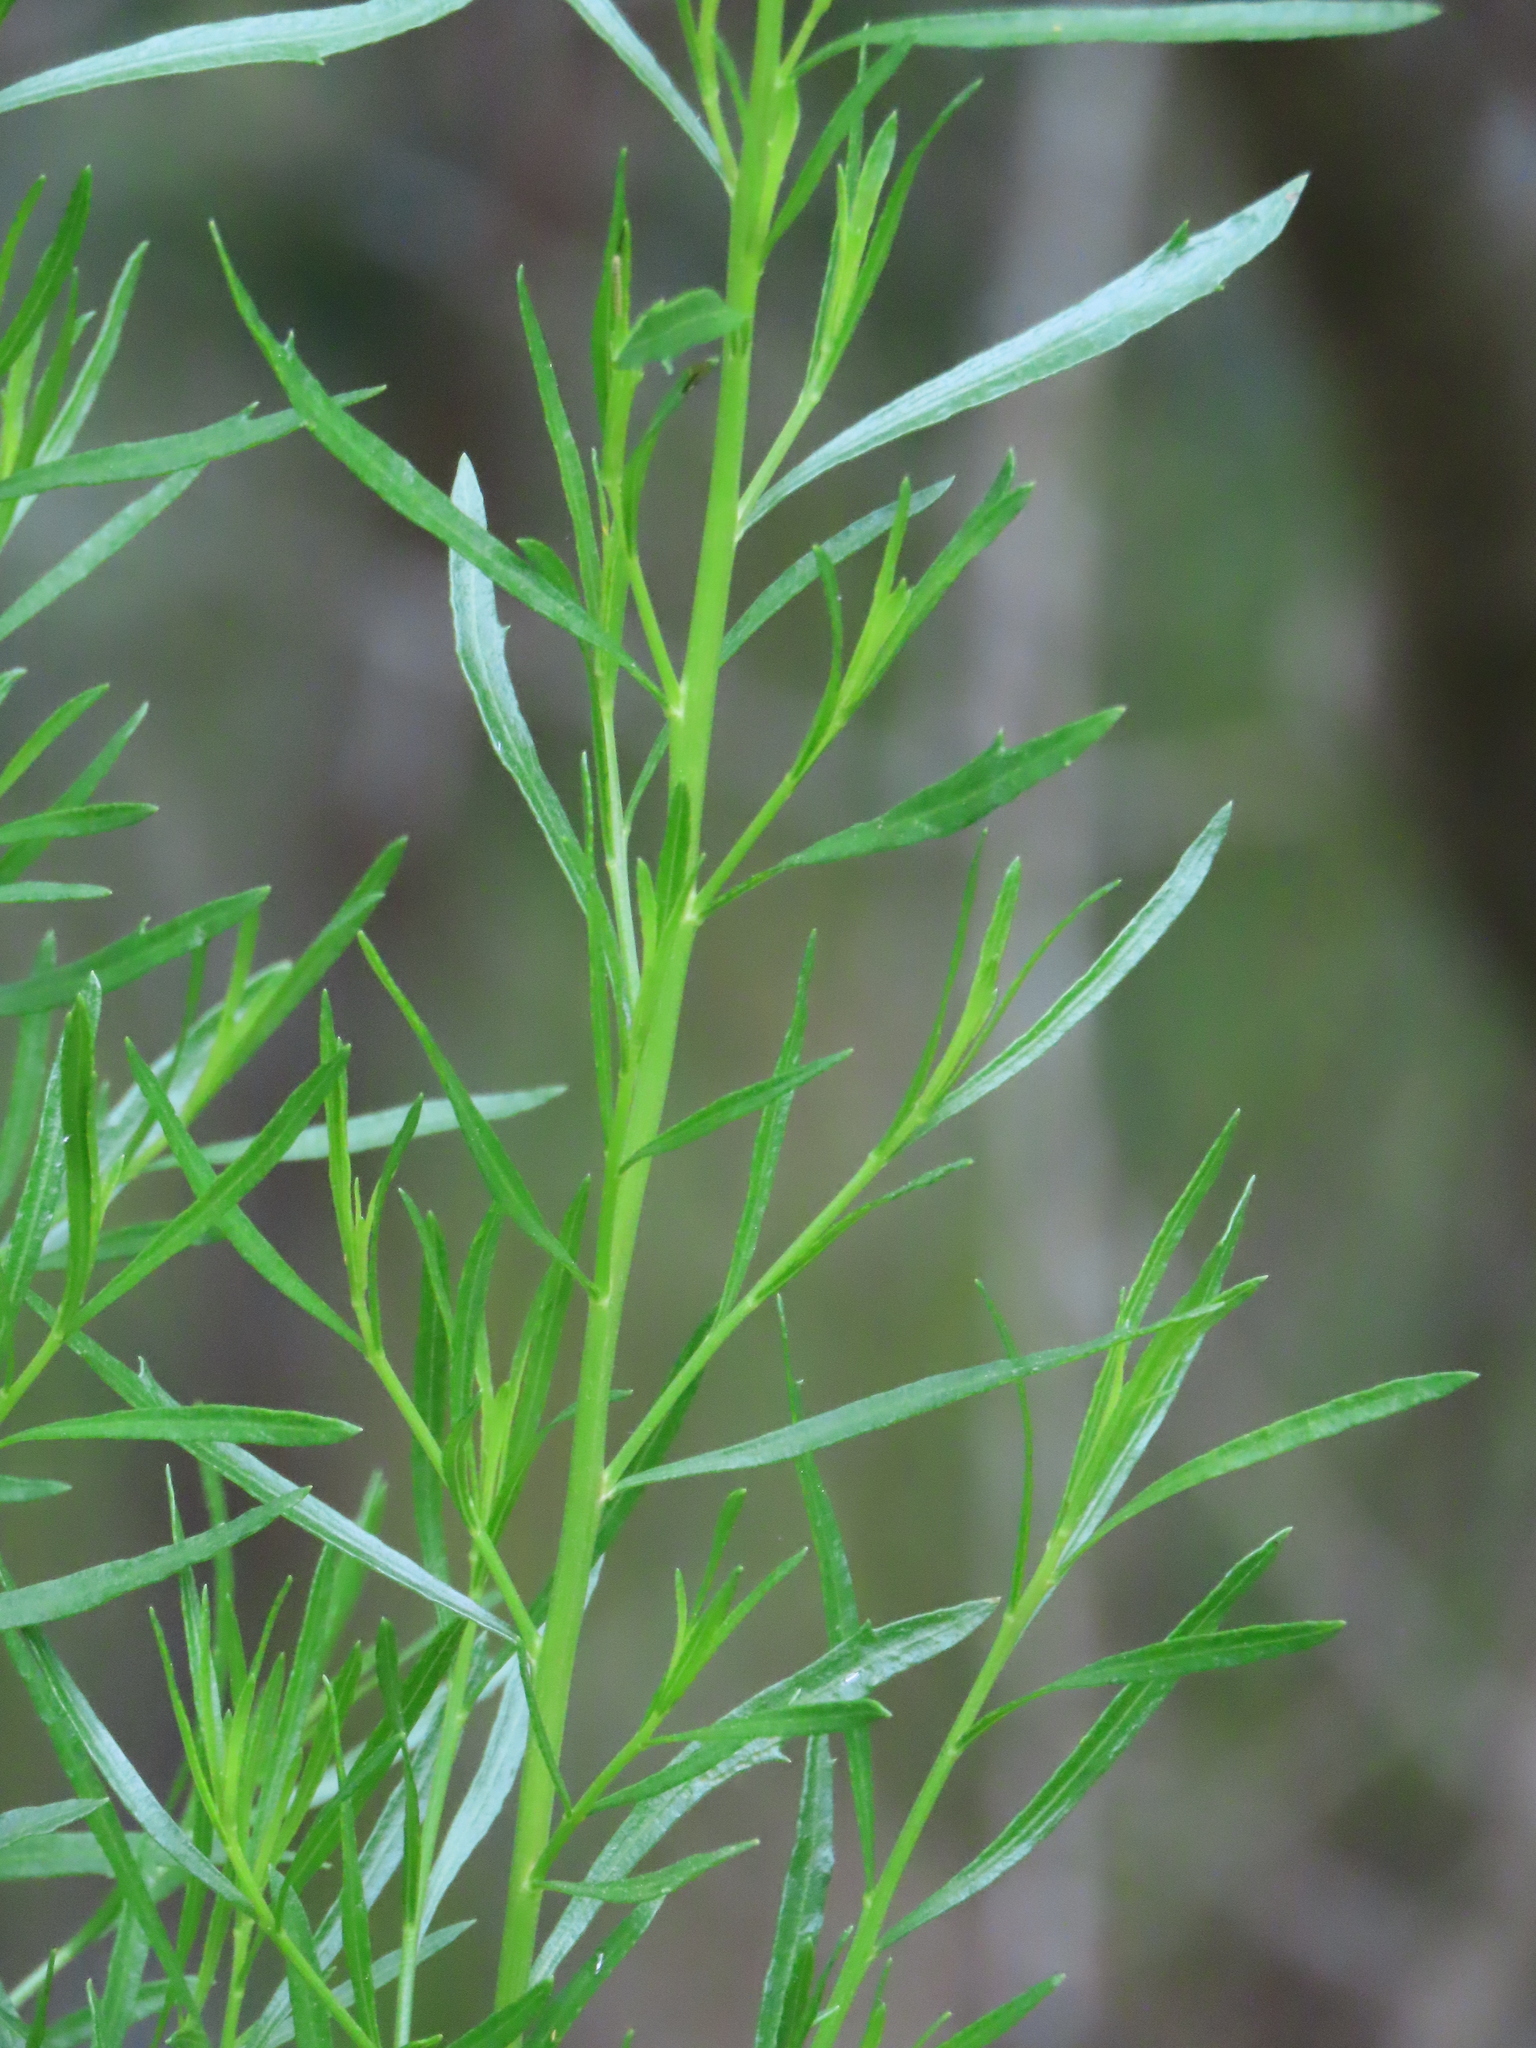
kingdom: Plantae
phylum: Tracheophyta
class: Magnoliopsida
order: Asterales
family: Asteraceae
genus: Baccharis
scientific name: Baccharis angustifolia
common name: Narrow-leaf baccharis
